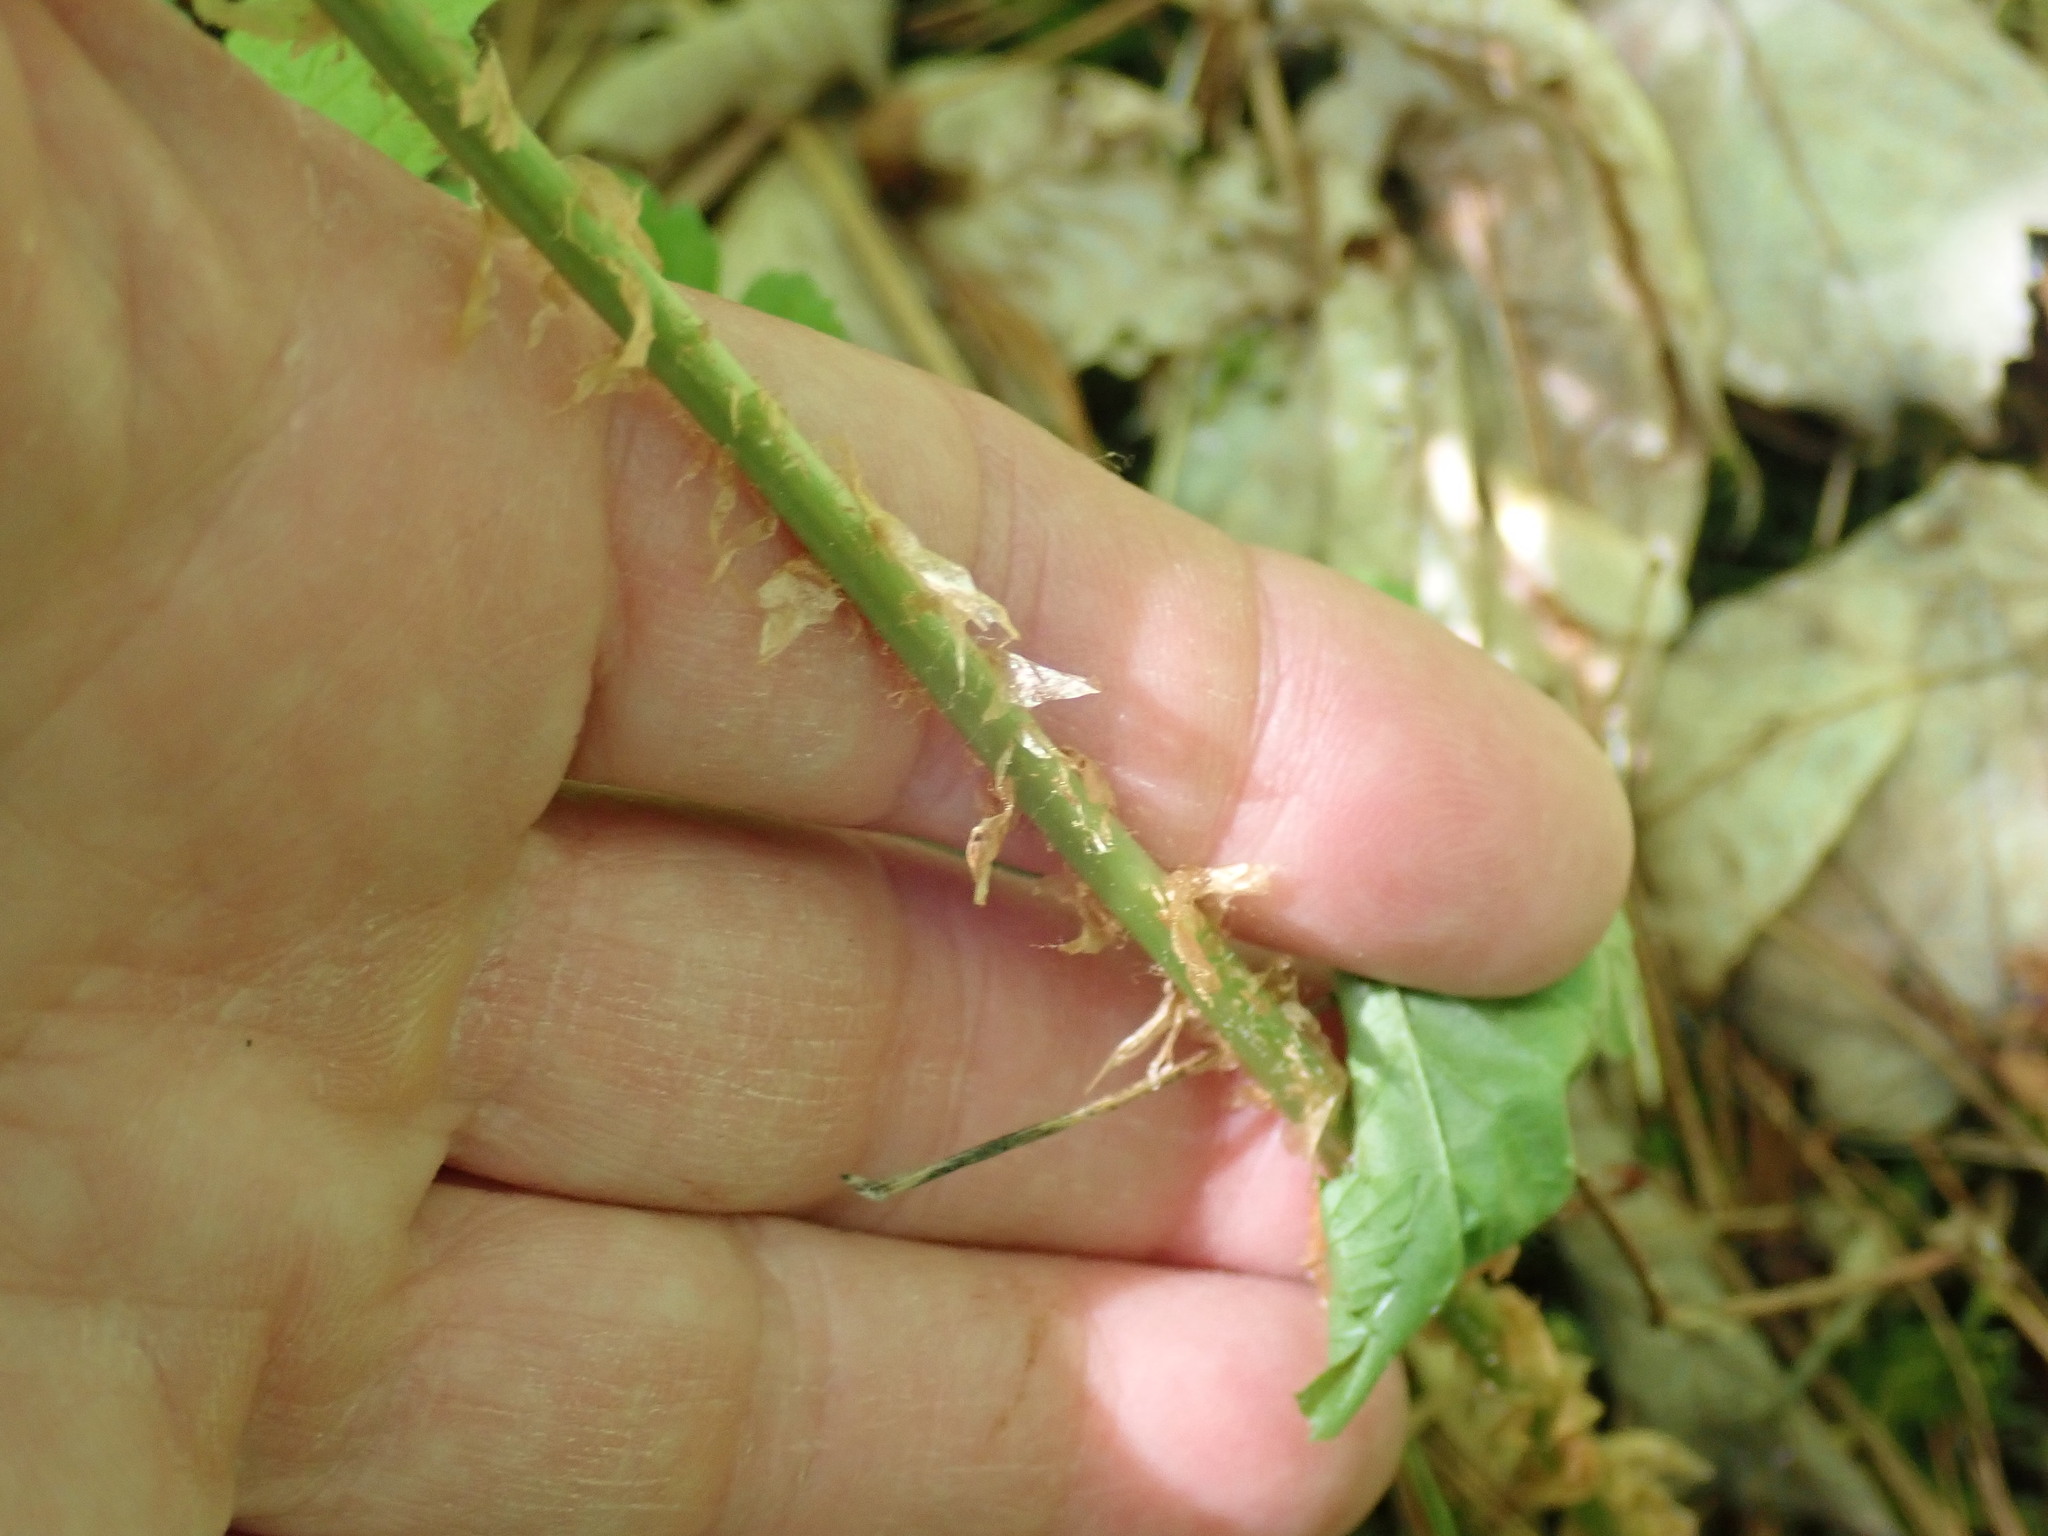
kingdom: Plantae
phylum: Tracheophyta
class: Polypodiopsida
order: Polypodiales
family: Dryopteridaceae
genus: Dryopteris
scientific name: Dryopteris cristata
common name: Crested wood fern
